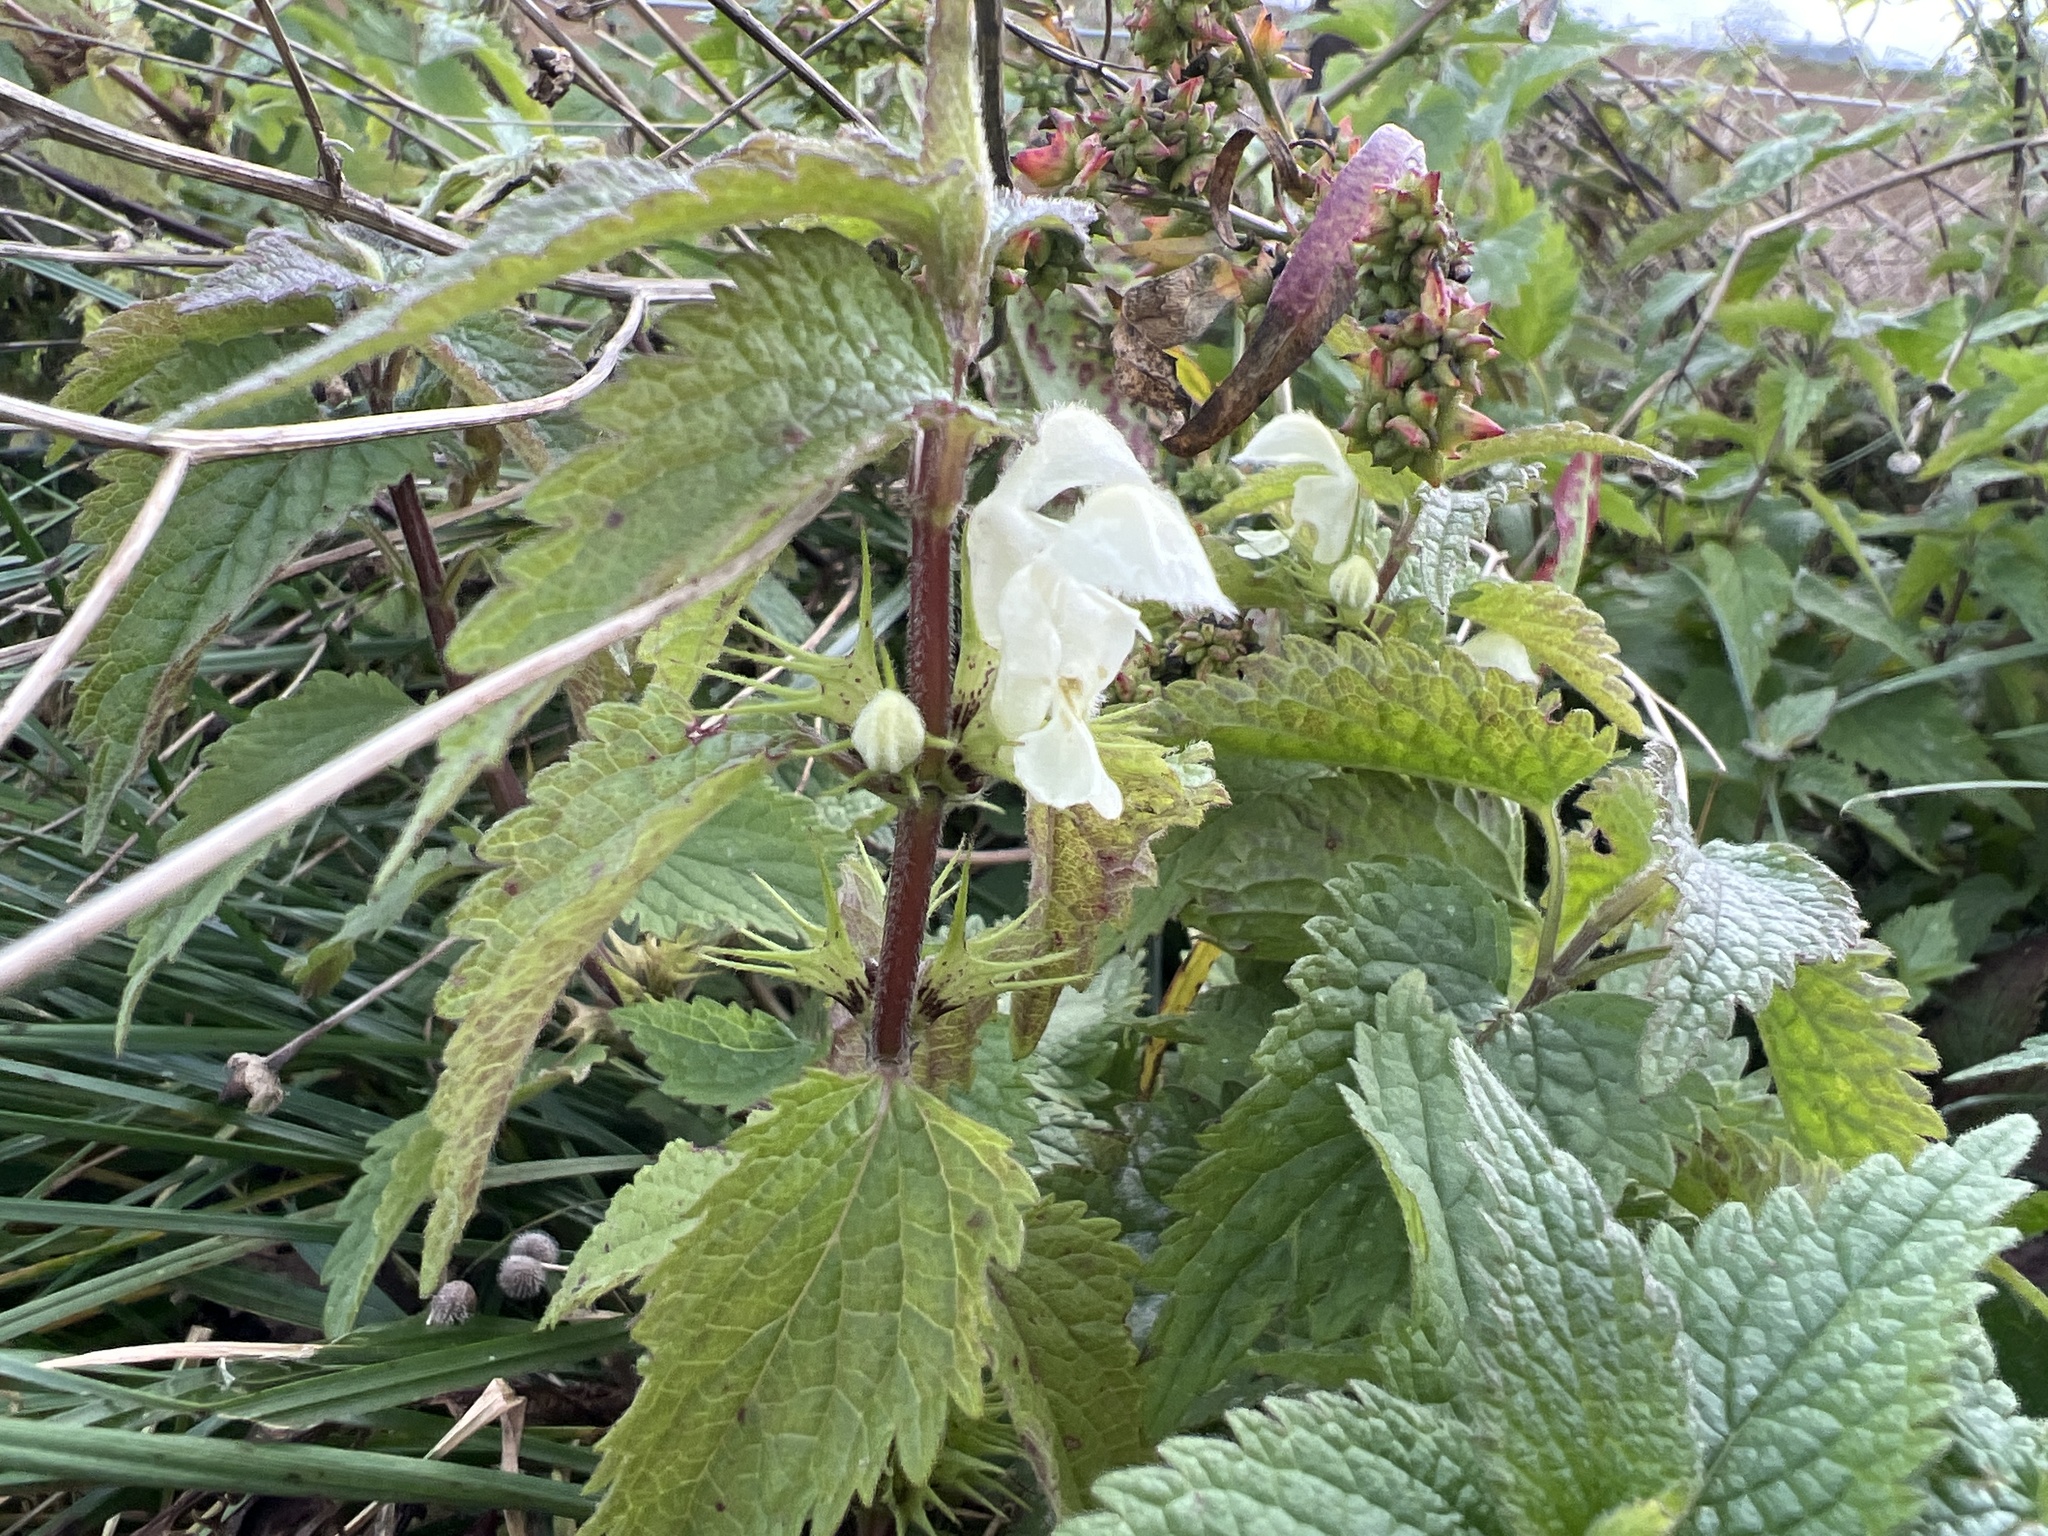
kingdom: Plantae
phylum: Tracheophyta
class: Magnoliopsida
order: Lamiales
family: Lamiaceae
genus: Lamium
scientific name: Lamium album
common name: White dead-nettle
